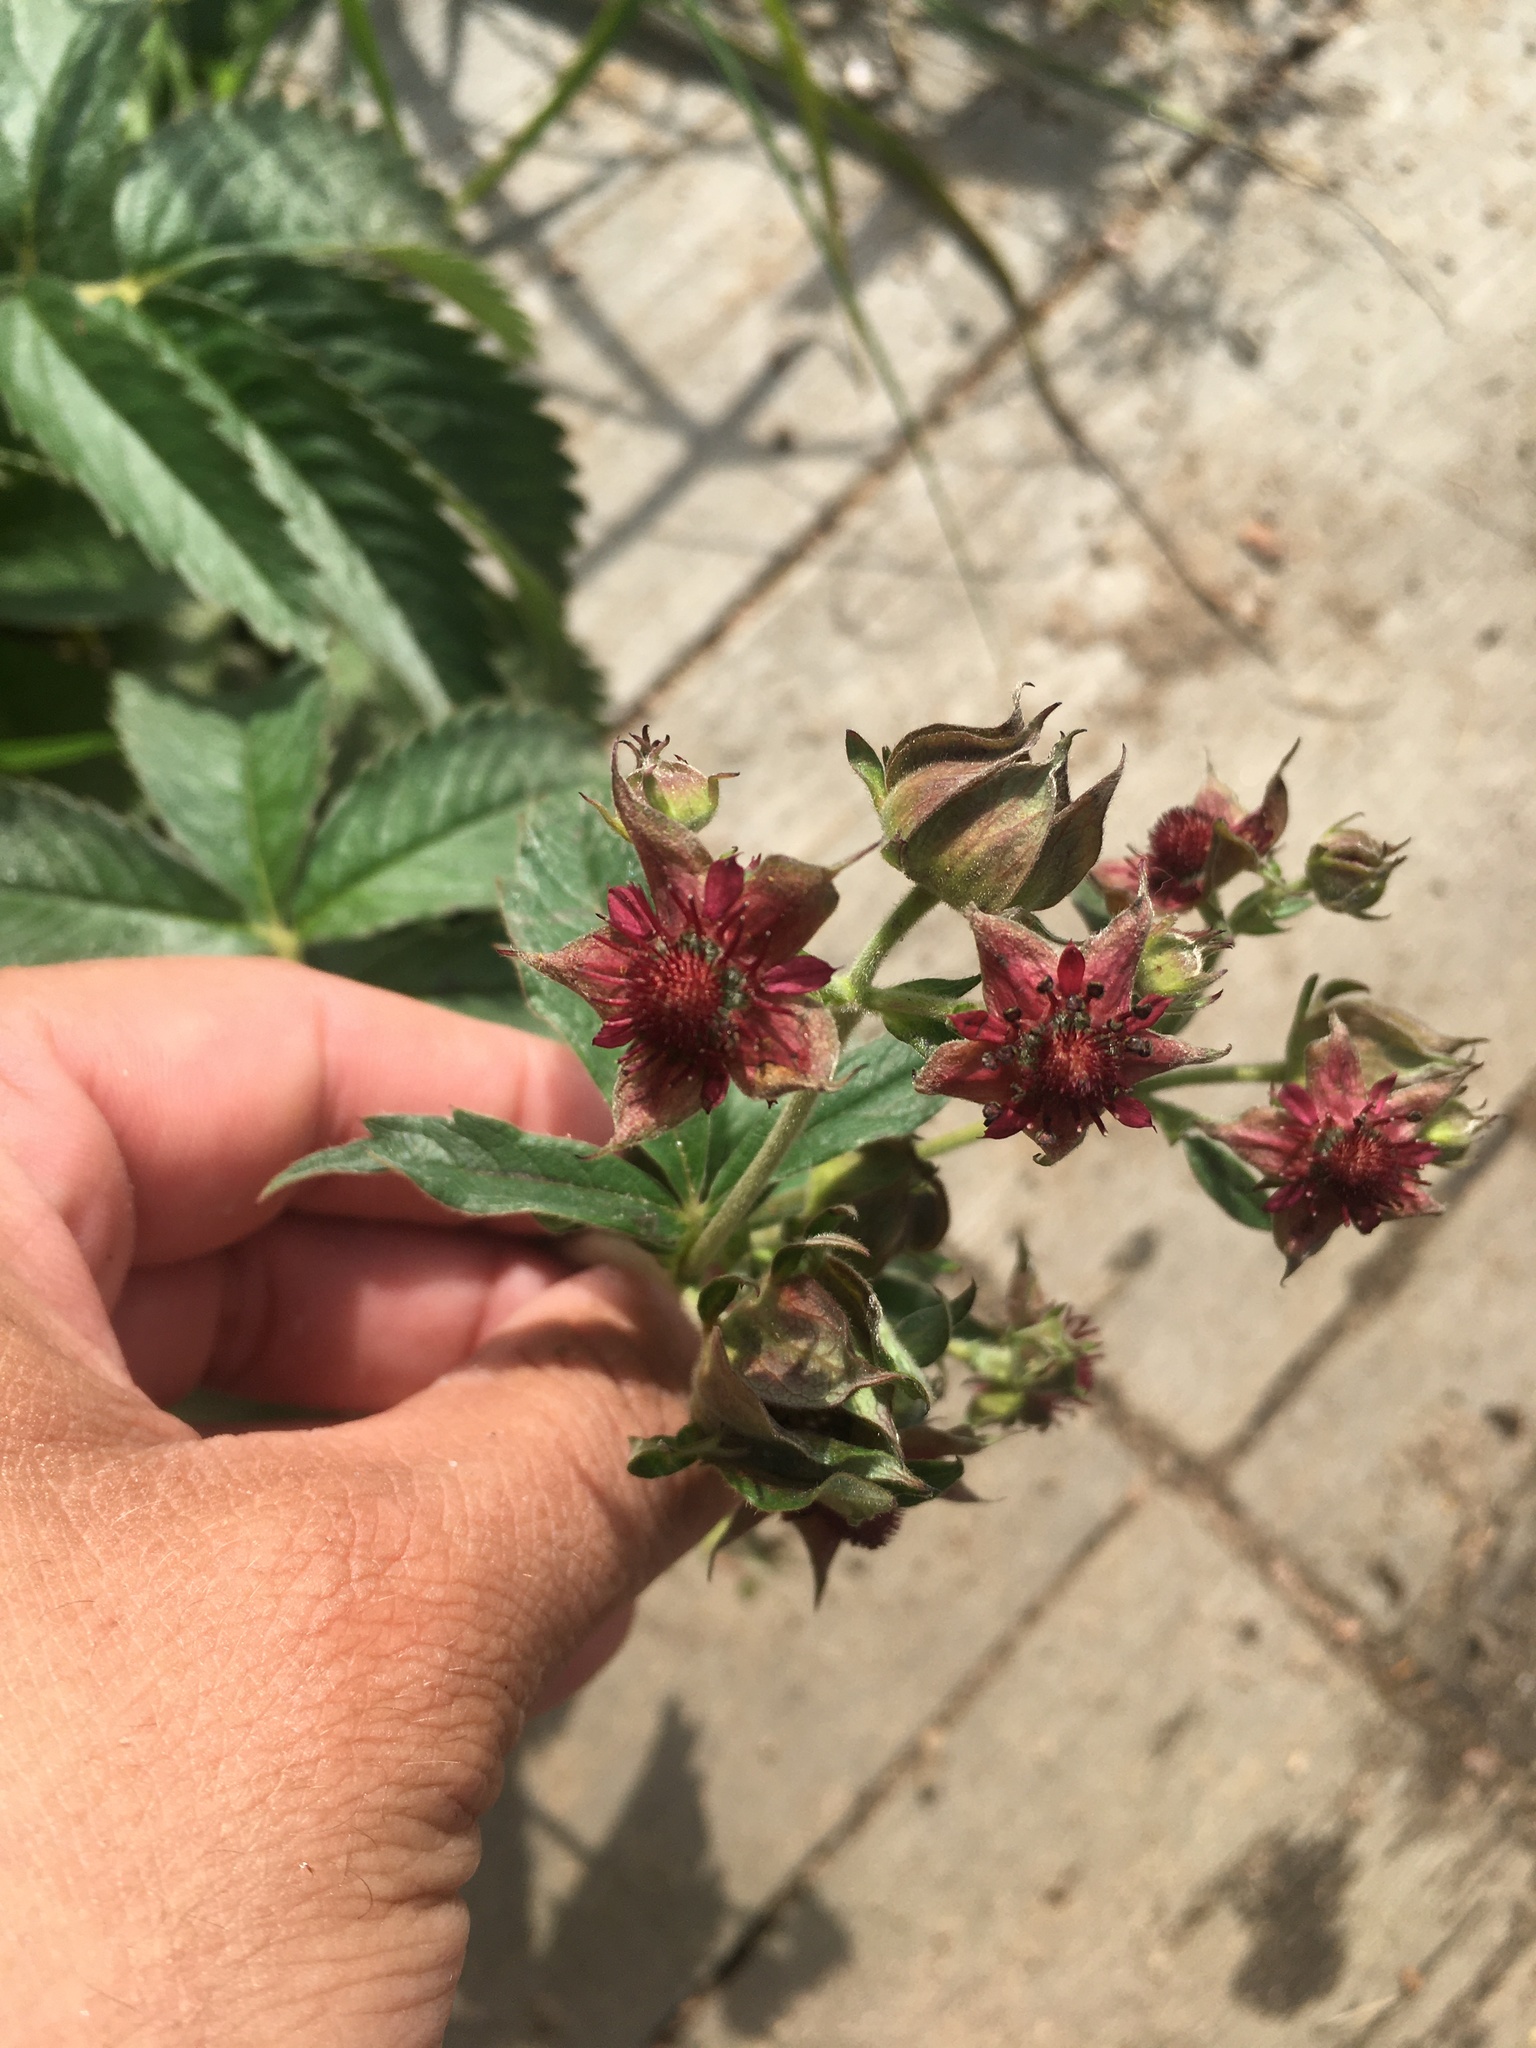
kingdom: Plantae
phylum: Tracheophyta
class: Magnoliopsida
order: Rosales
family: Rosaceae
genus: Comarum
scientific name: Comarum palustre
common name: Marsh cinquefoil
